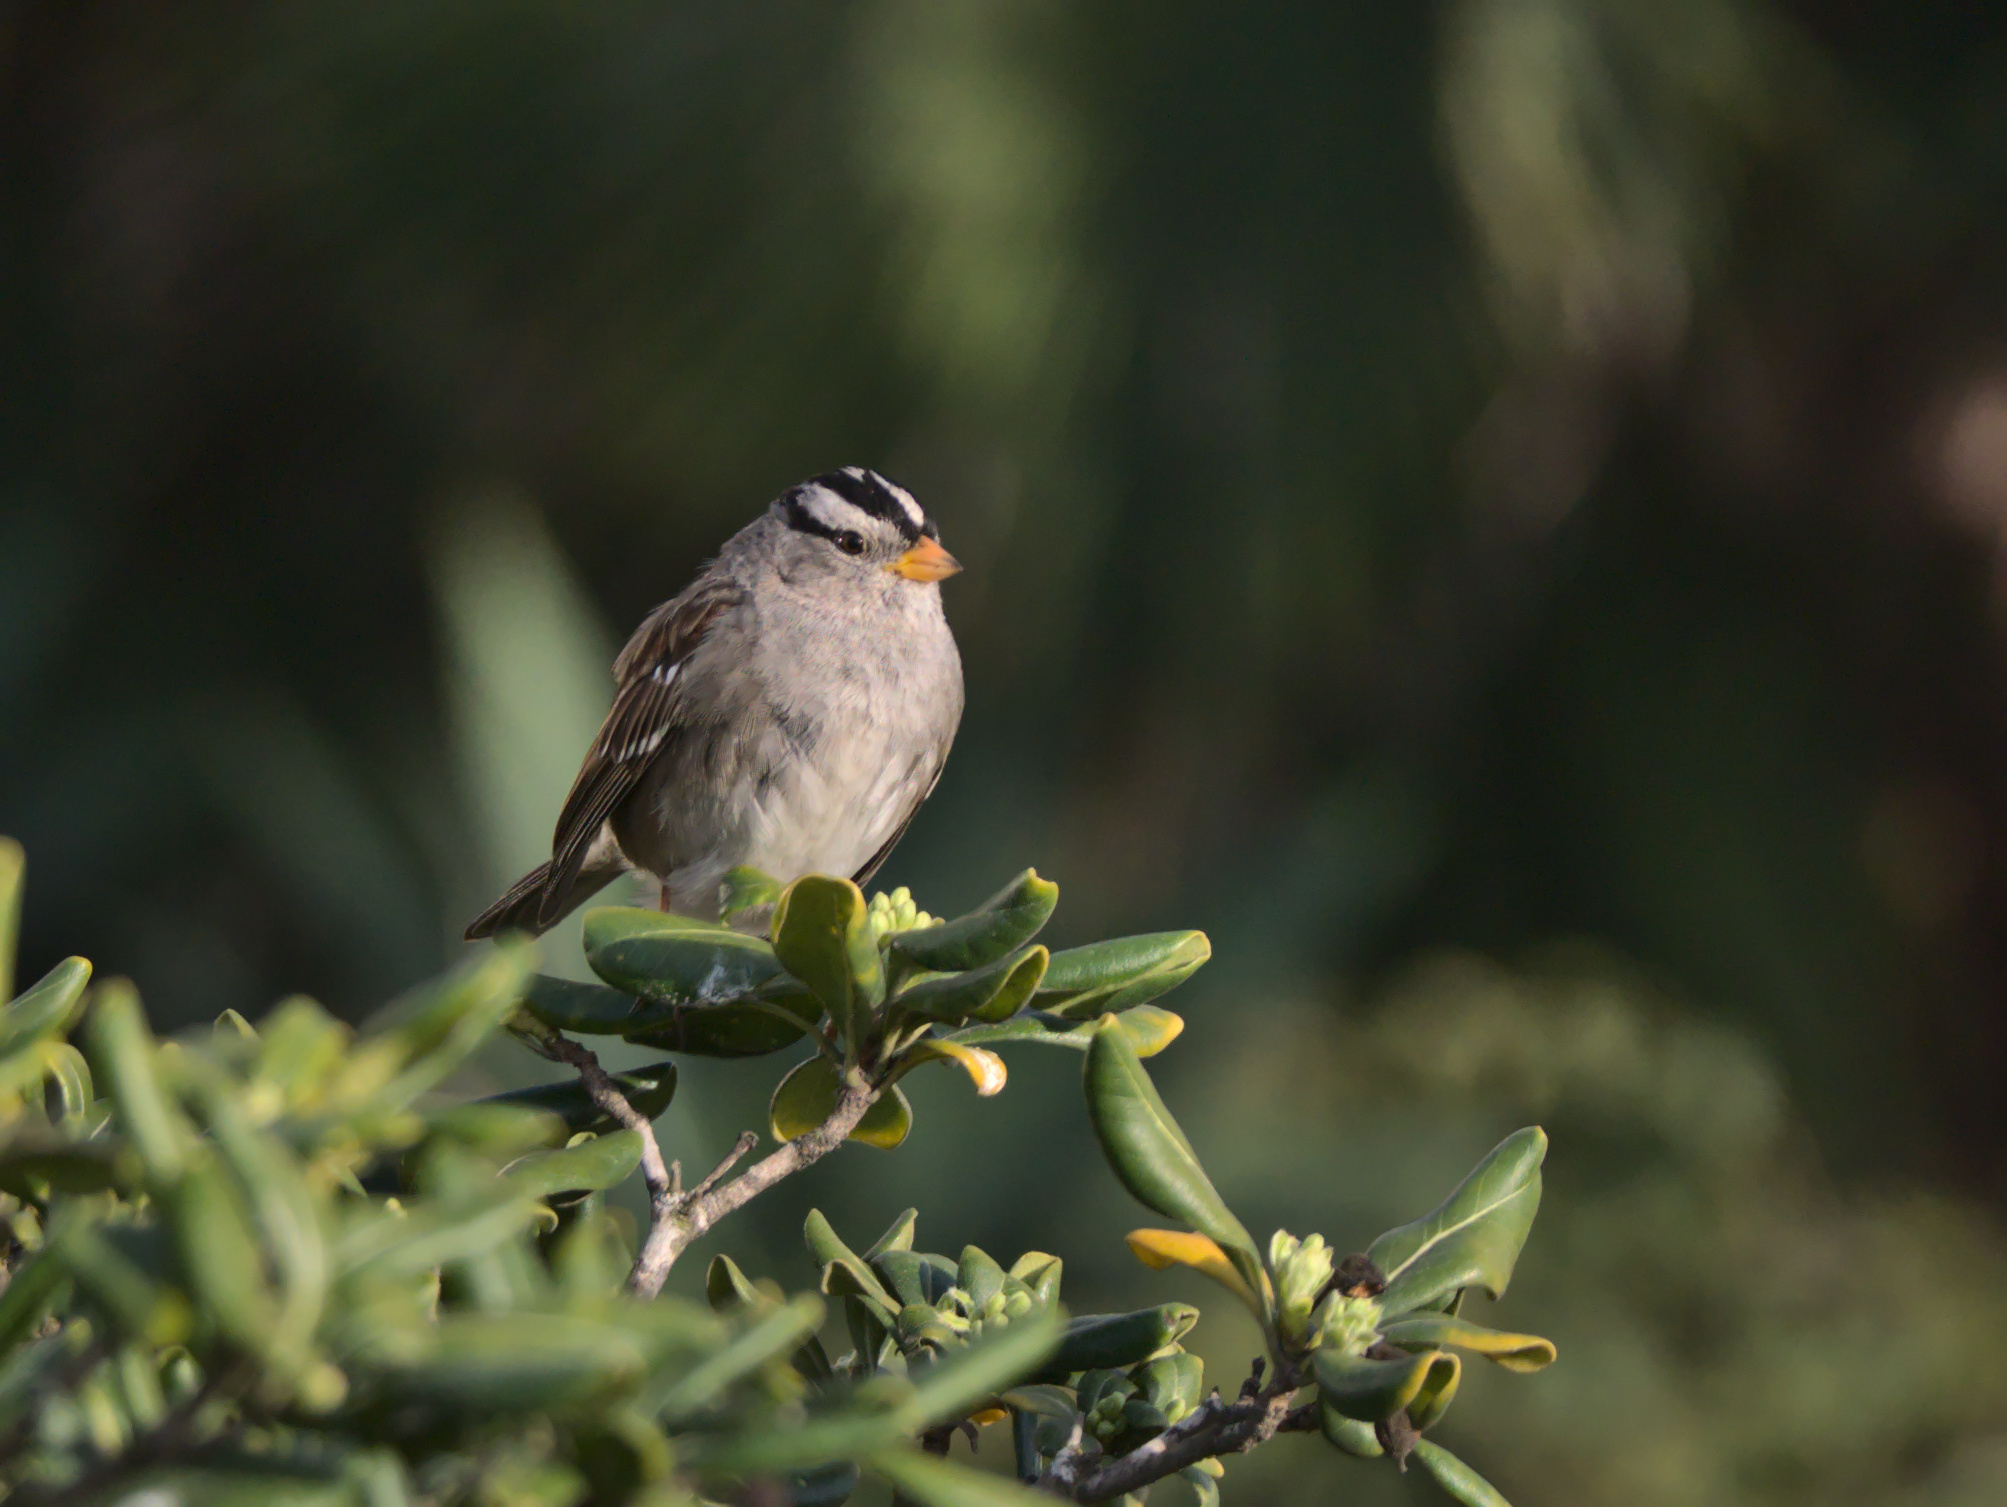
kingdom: Animalia
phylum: Chordata
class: Aves
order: Passeriformes
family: Passerellidae
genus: Zonotrichia
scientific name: Zonotrichia leucophrys
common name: White-crowned sparrow
